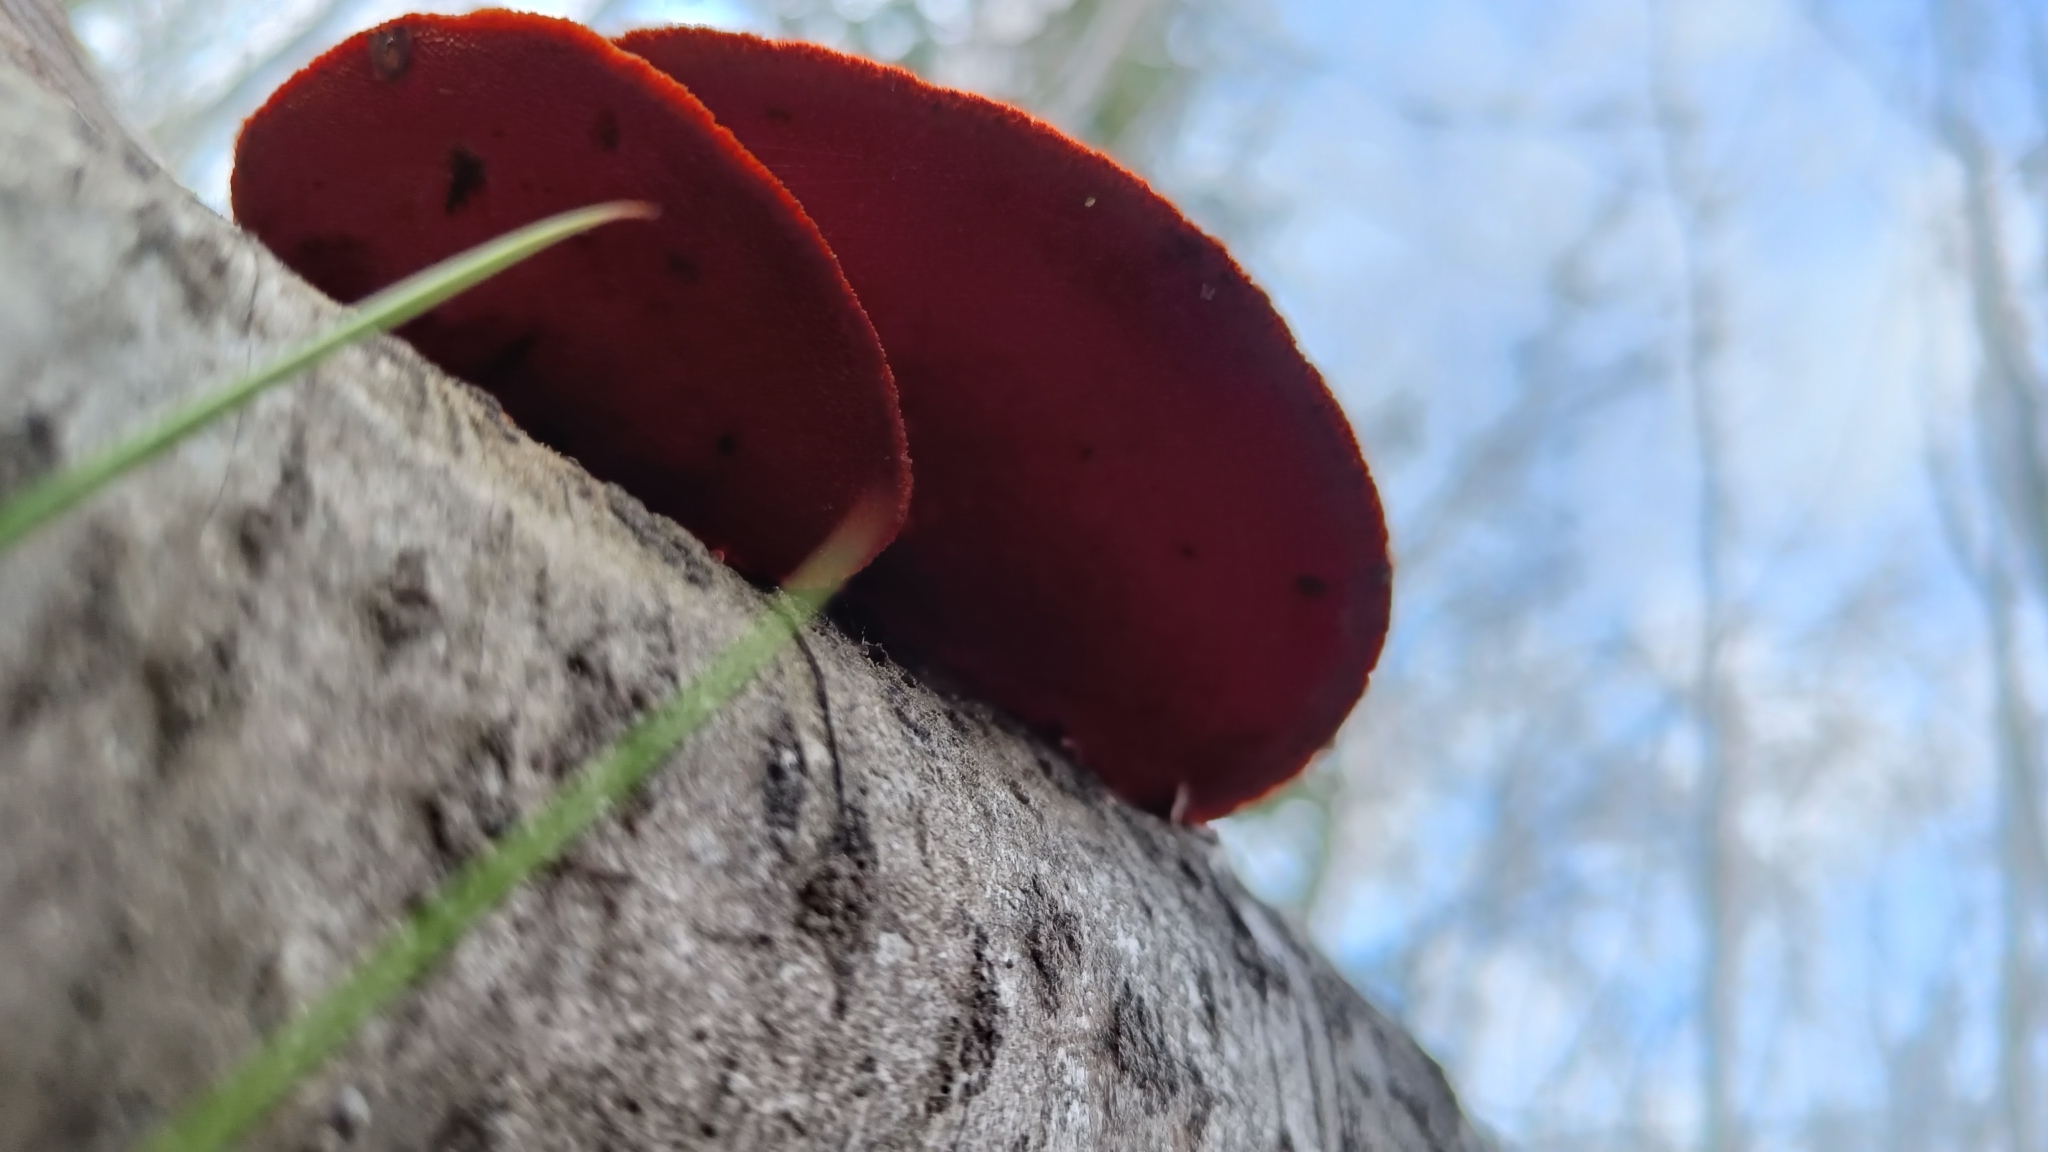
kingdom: Fungi
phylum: Basidiomycota
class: Agaricomycetes
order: Polyporales
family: Polyporaceae
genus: Trametes
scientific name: Trametes cinnabarina
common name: Northern cinnabar polypore
